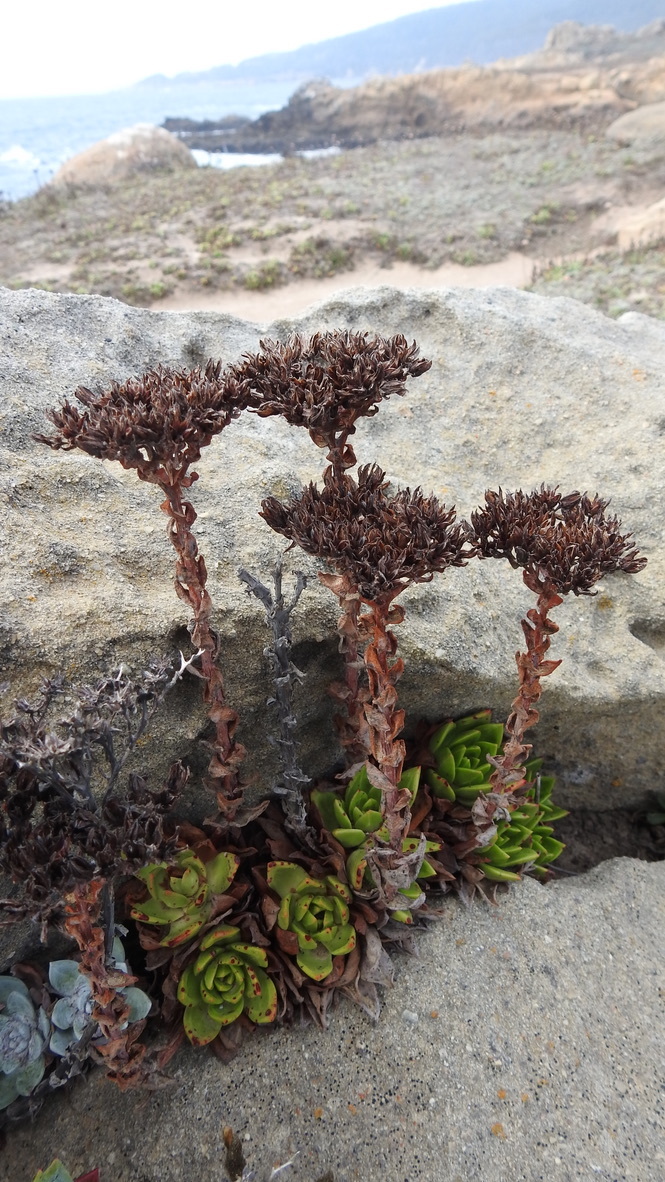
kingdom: Plantae
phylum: Tracheophyta
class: Magnoliopsida
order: Saxifragales
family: Crassulaceae
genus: Dudleya
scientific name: Dudleya farinosa
